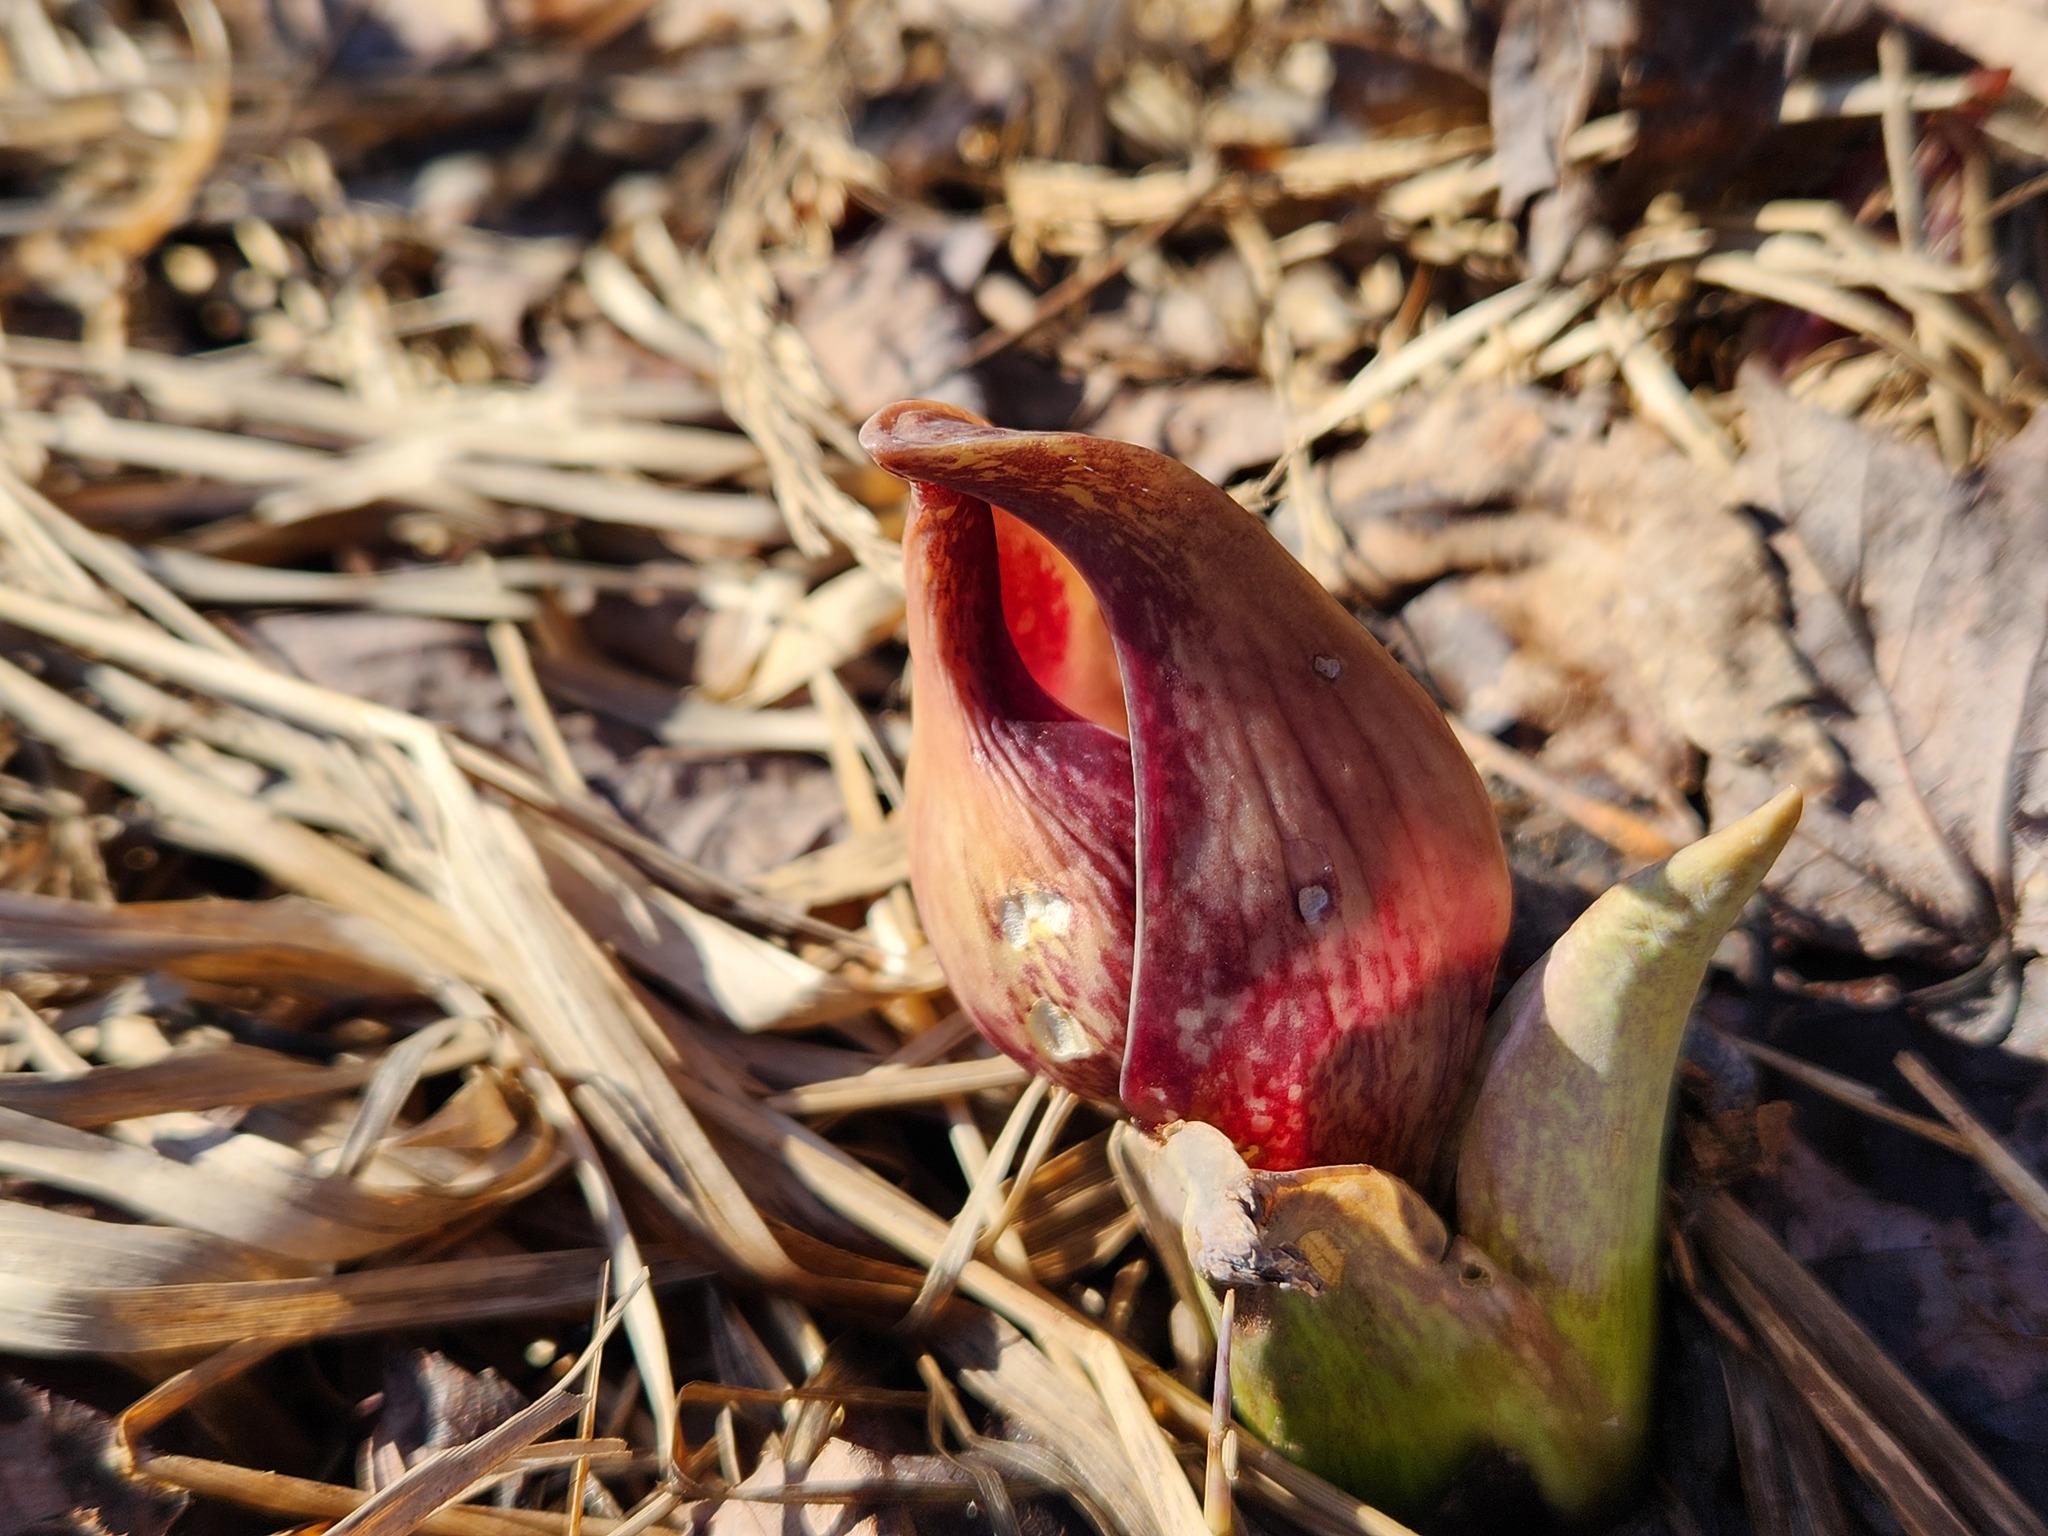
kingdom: Plantae
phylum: Tracheophyta
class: Liliopsida
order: Alismatales
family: Araceae
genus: Symplocarpus
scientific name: Symplocarpus foetidus
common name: Eastern skunk cabbage
